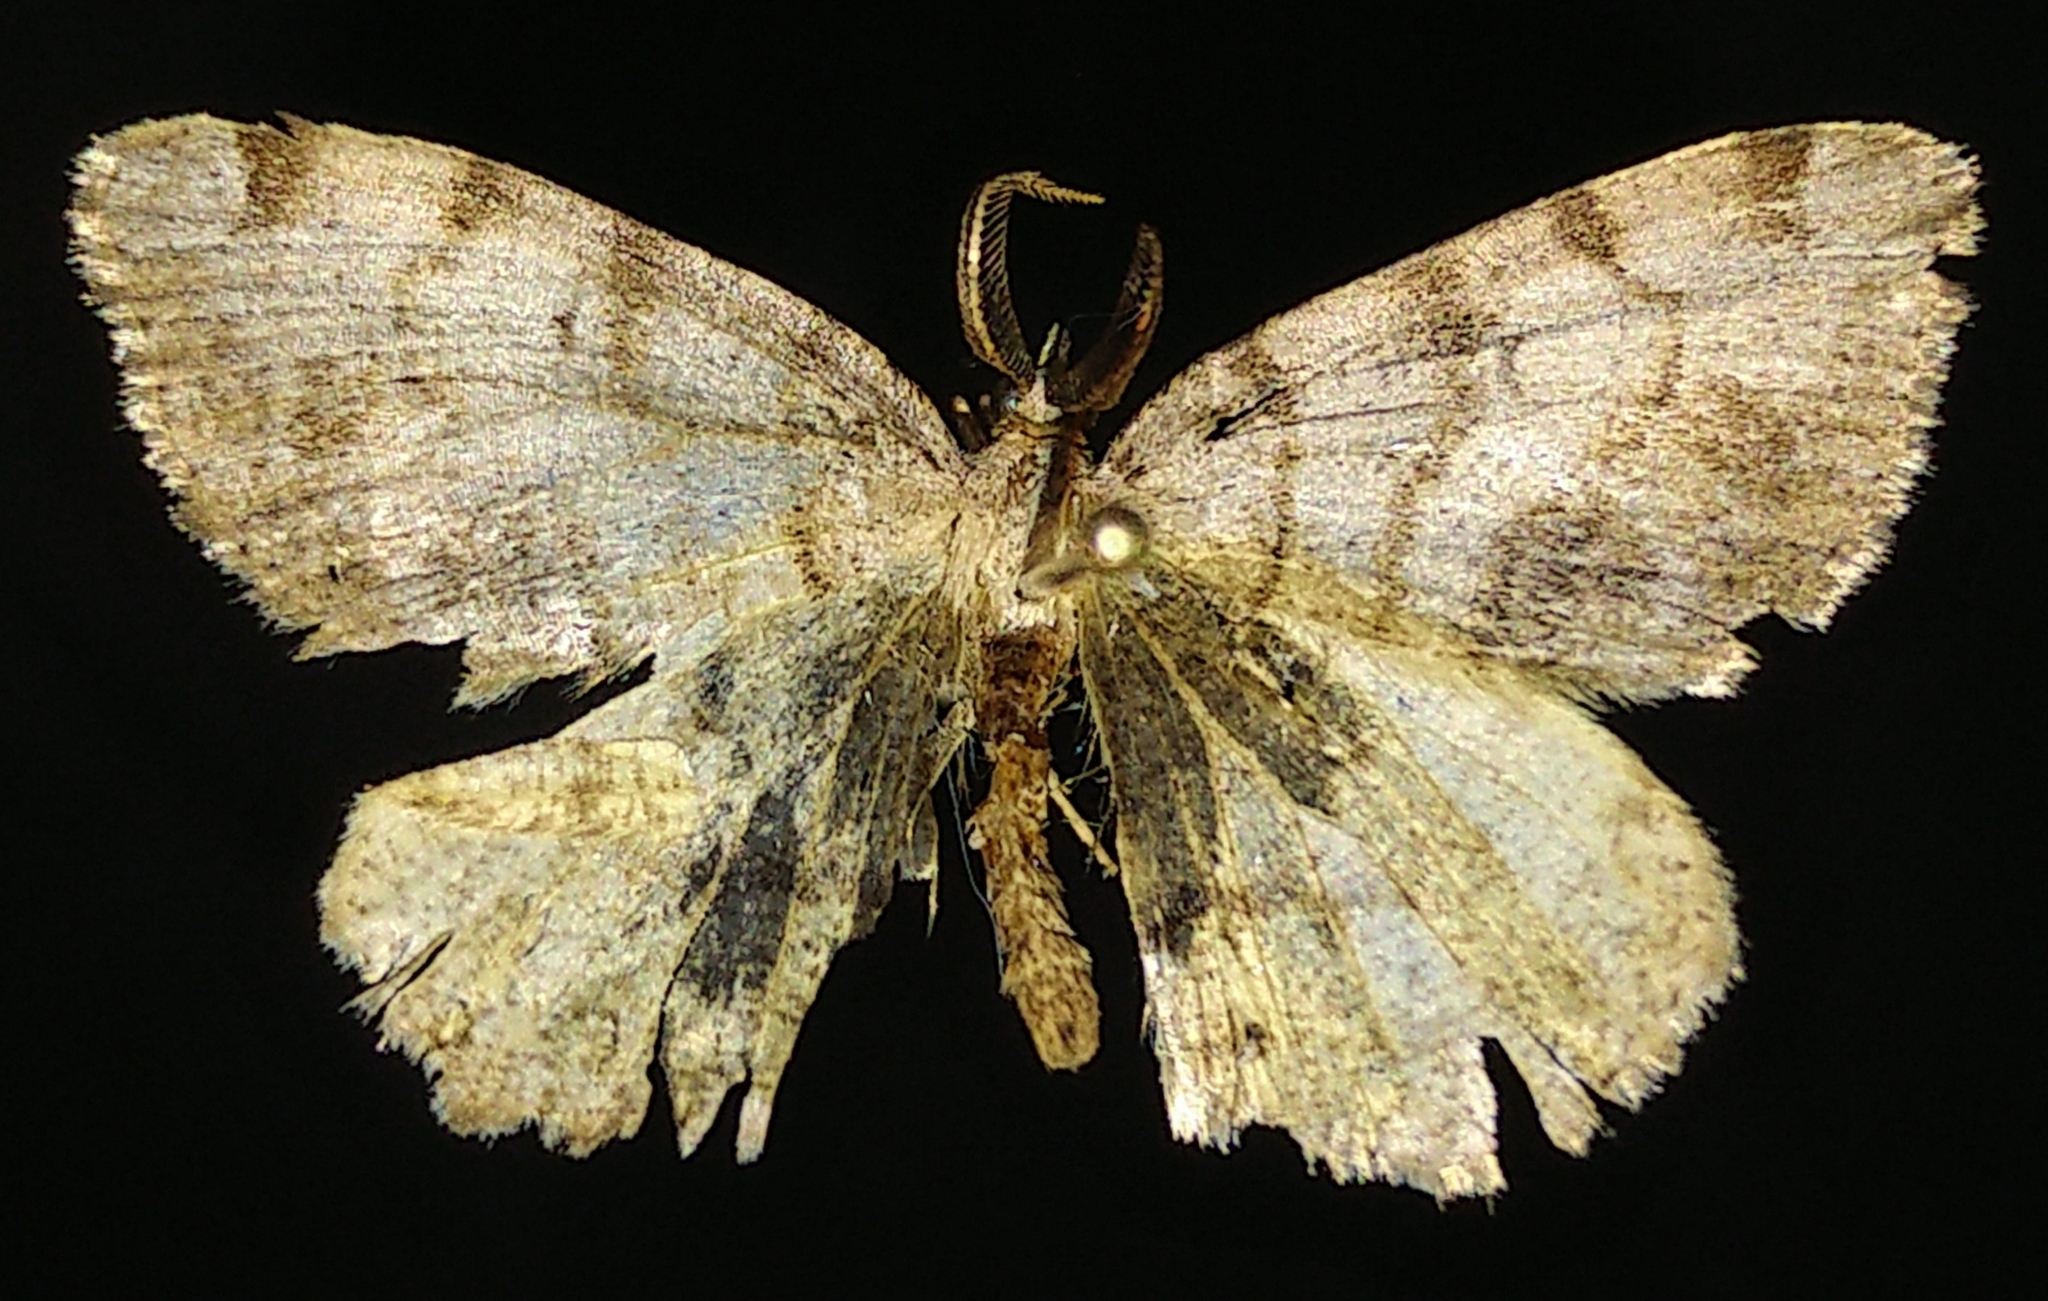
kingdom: Animalia
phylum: Arthropoda
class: Insecta
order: Lepidoptera
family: Geometridae
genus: Macaria
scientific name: Macaria exauspicata
